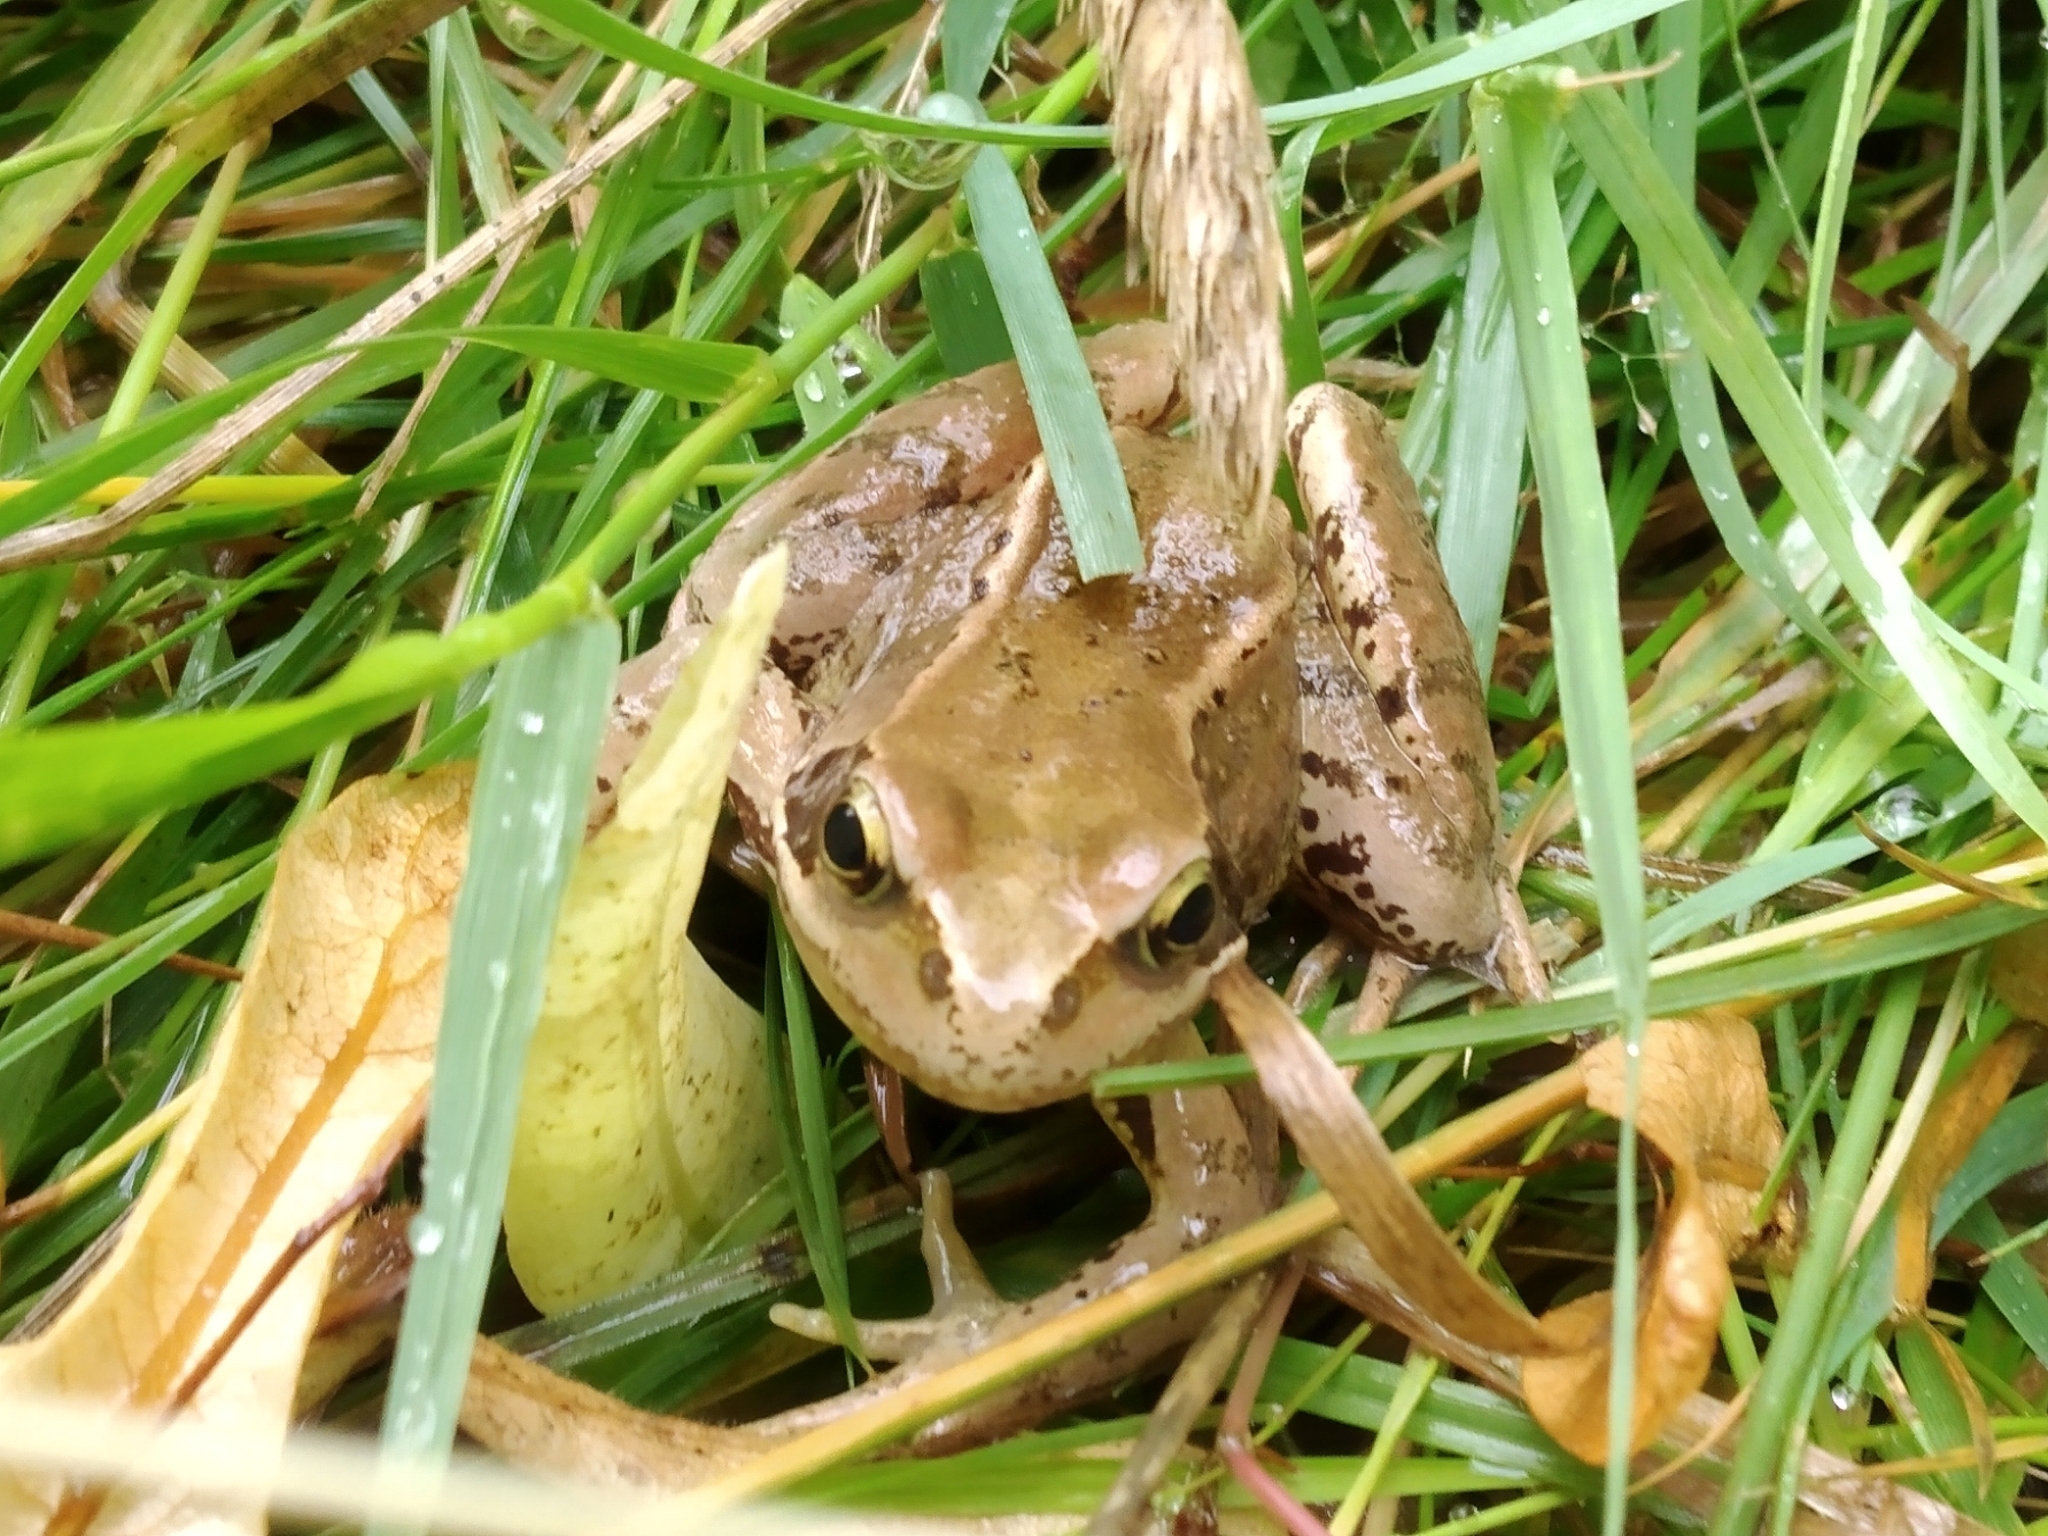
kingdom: Animalia
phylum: Chordata
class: Amphibia
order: Anura
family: Ranidae
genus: Rana
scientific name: Rana temporaria
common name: Common frog
